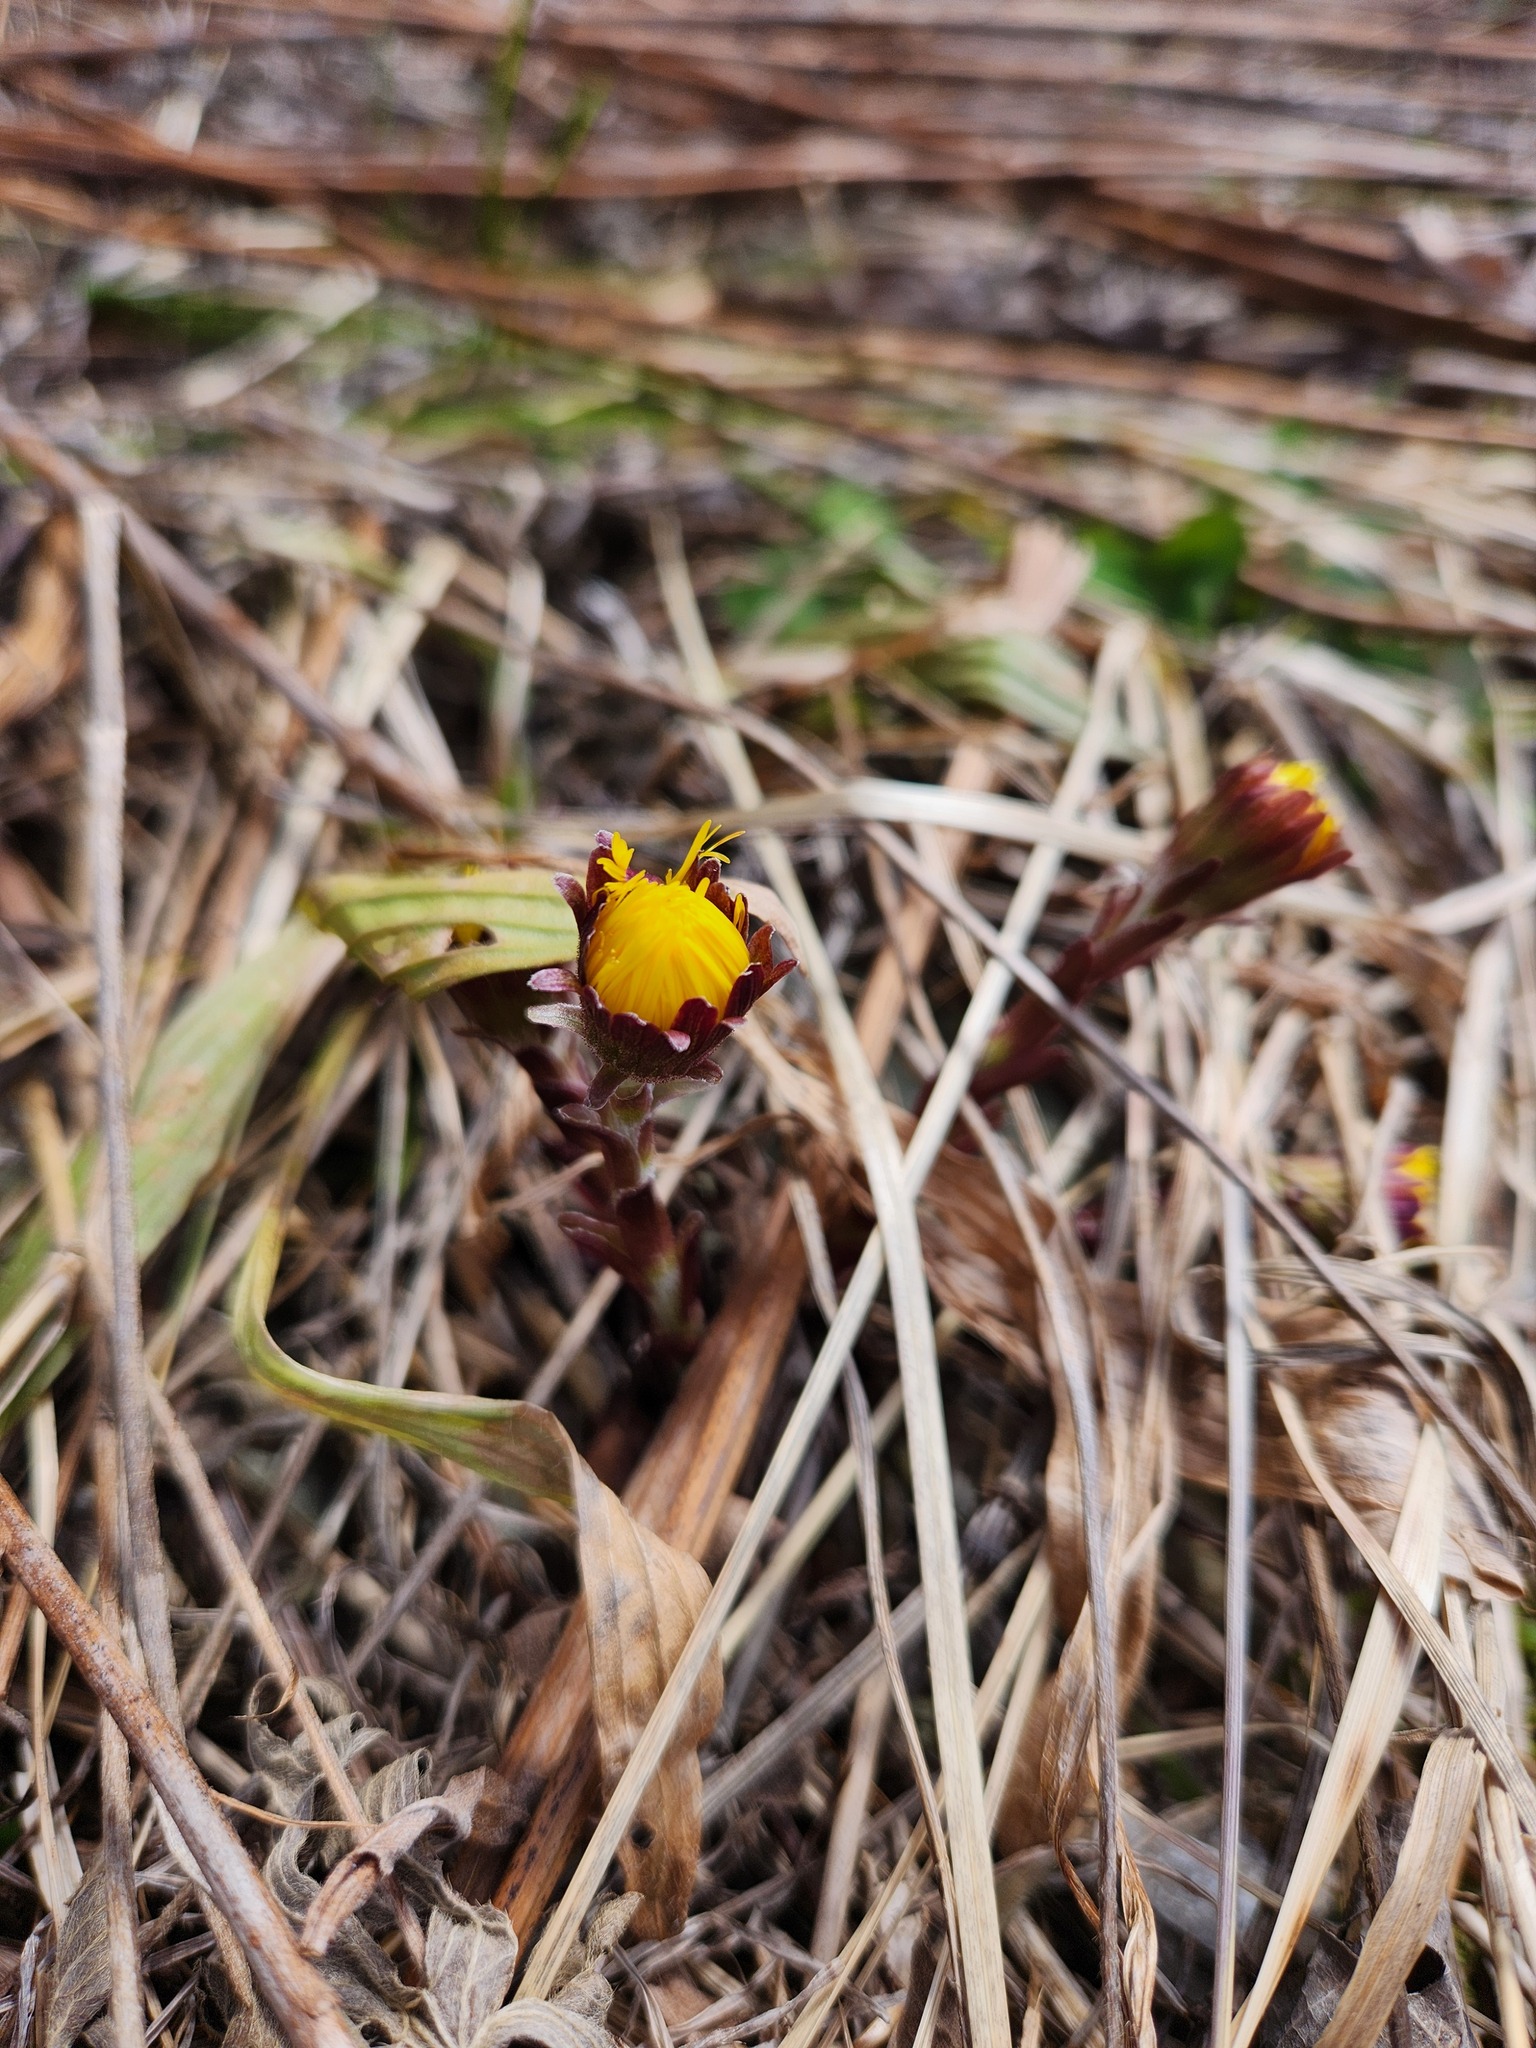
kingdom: Plantae
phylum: Tracheophyta
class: Magnoliopsida
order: Asterales
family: Asteraceae
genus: Tussilago
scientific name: Tussilago farfara
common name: Coltsfoot
